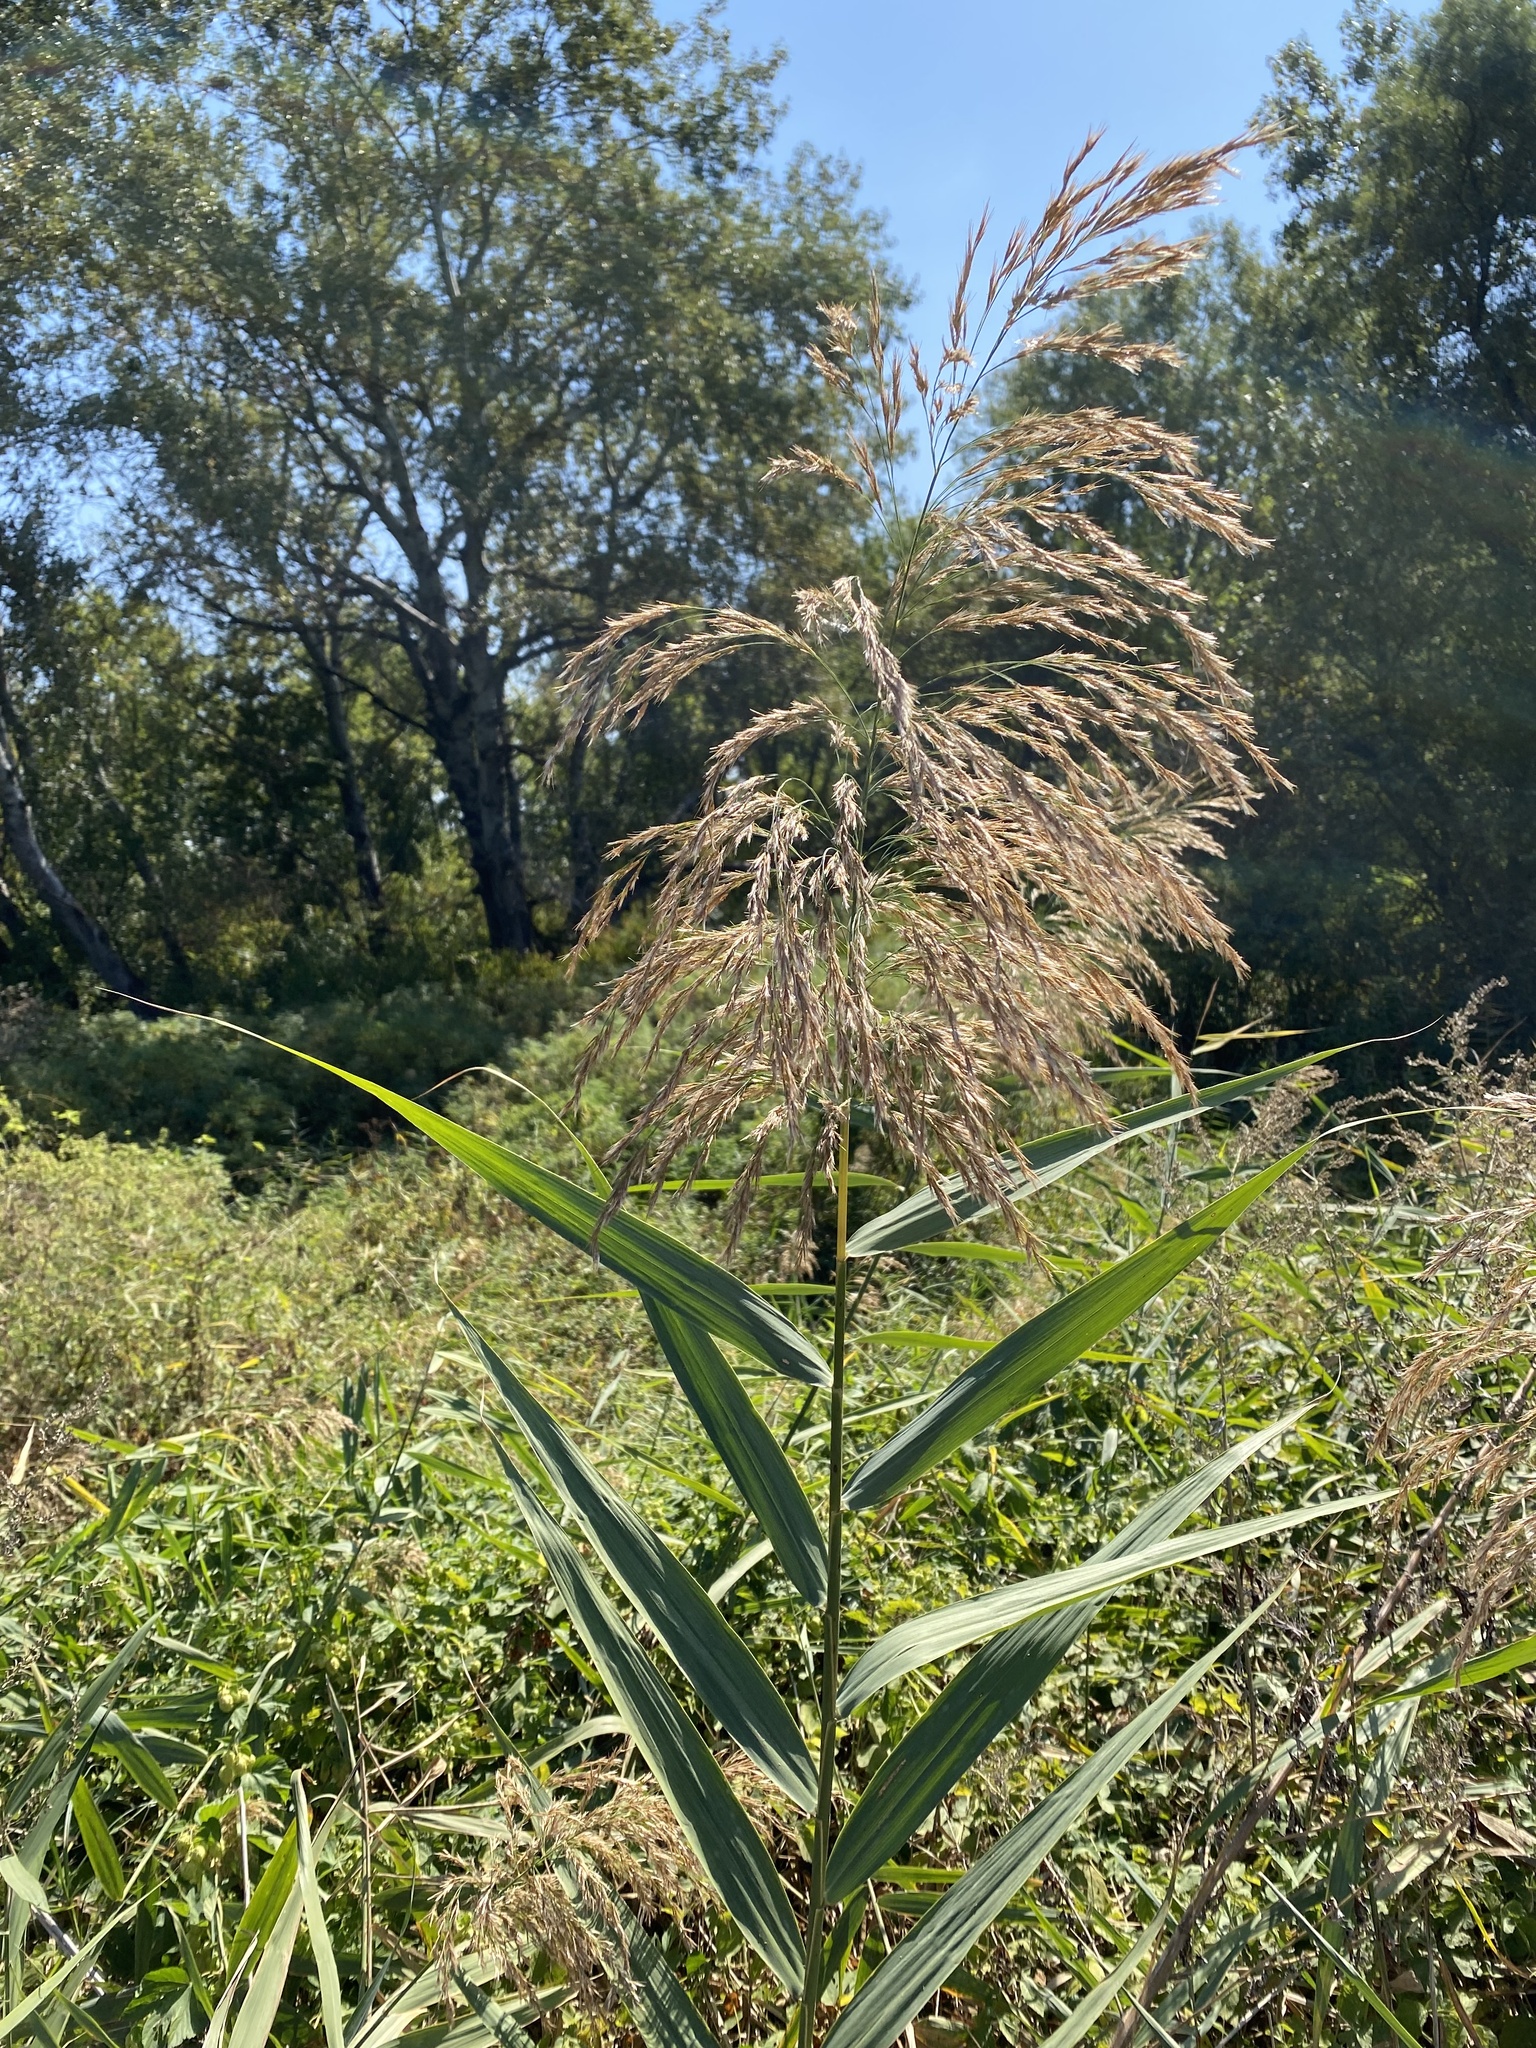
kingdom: Plantae
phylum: Tracheophyta
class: Liliopsida
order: Poales
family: Poaceae
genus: Phragmites
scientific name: Phragmites australis
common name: Common reed
